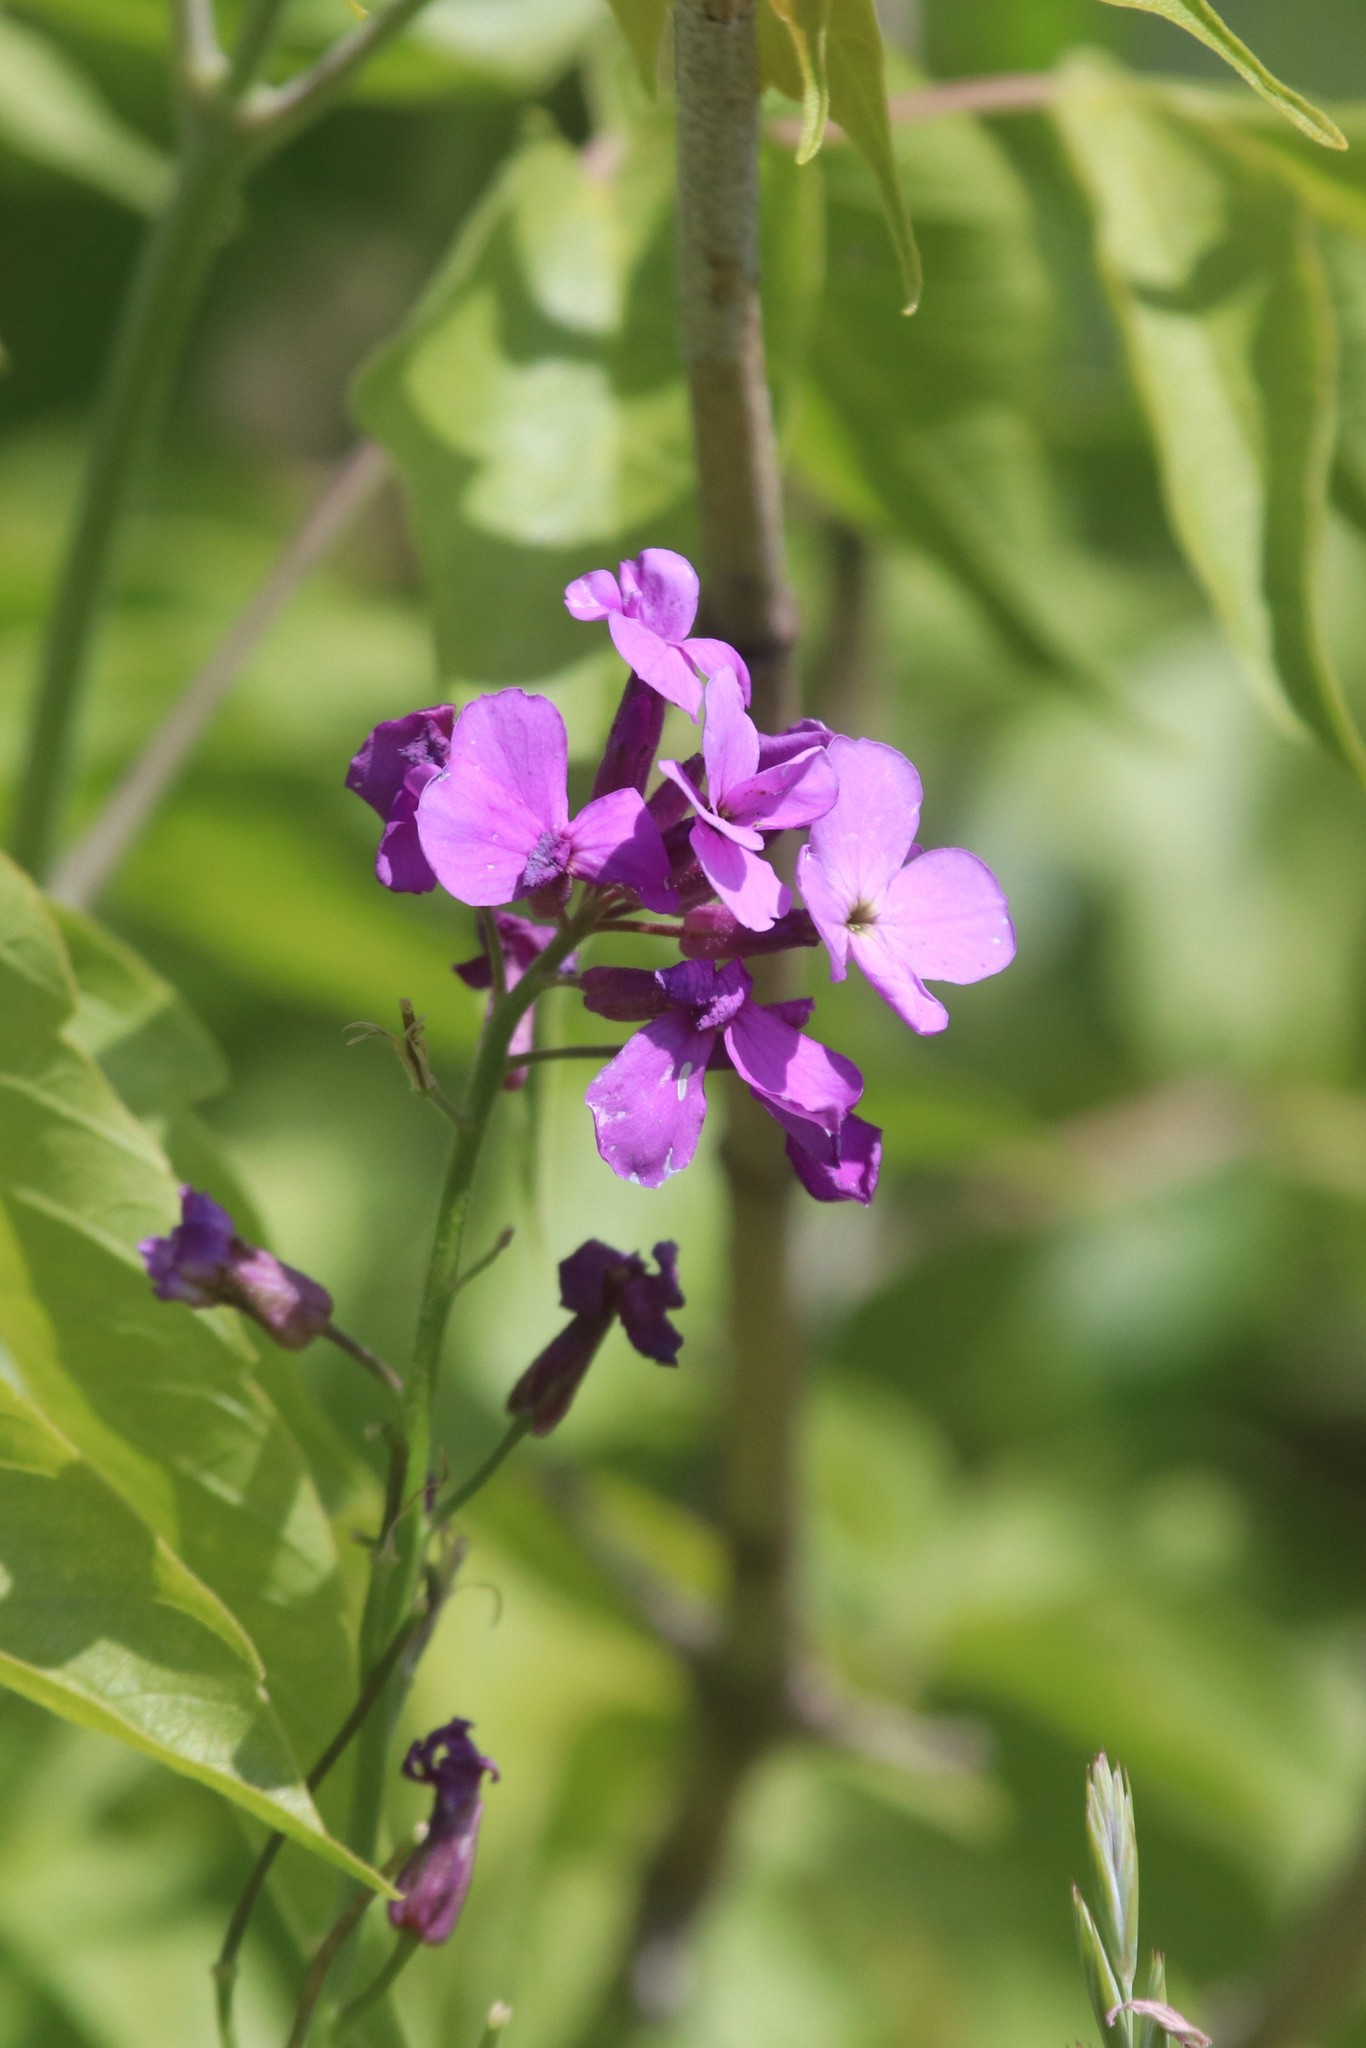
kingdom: Plantae
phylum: Tracheophyta
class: Magnoliopsida
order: Brassicales
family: Brassicaceae
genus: Hesperis
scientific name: Hesperis matronalis
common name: Dame's-violet
